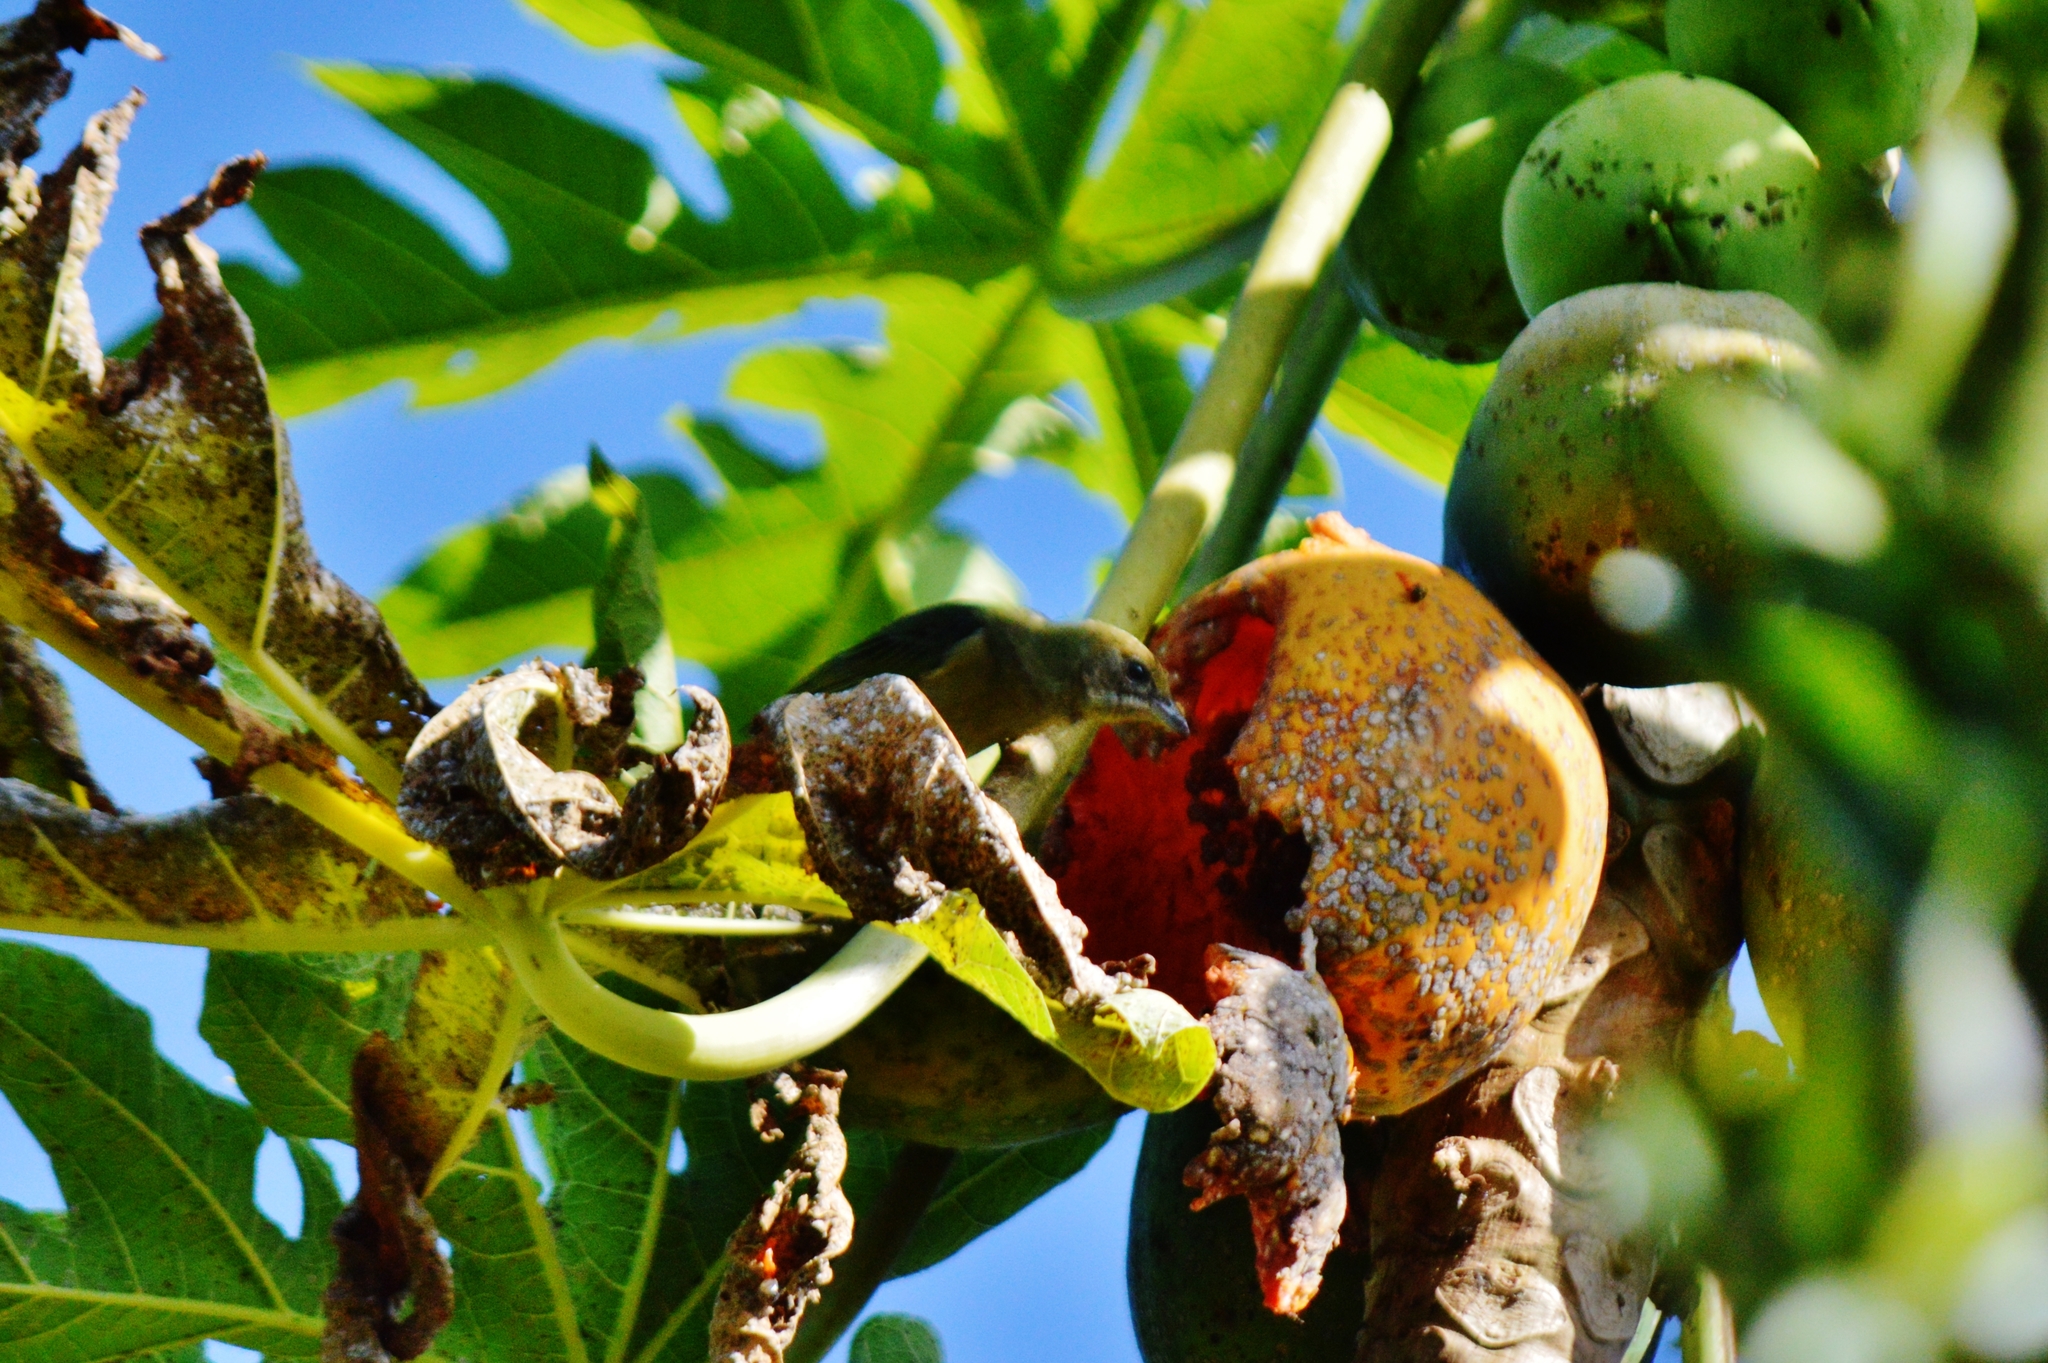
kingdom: Animalia
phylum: Chordata
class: Aves
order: Passeriformes
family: Thraupidae
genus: Thraupis
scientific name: Thraupis palmarum
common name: Palm tanager
